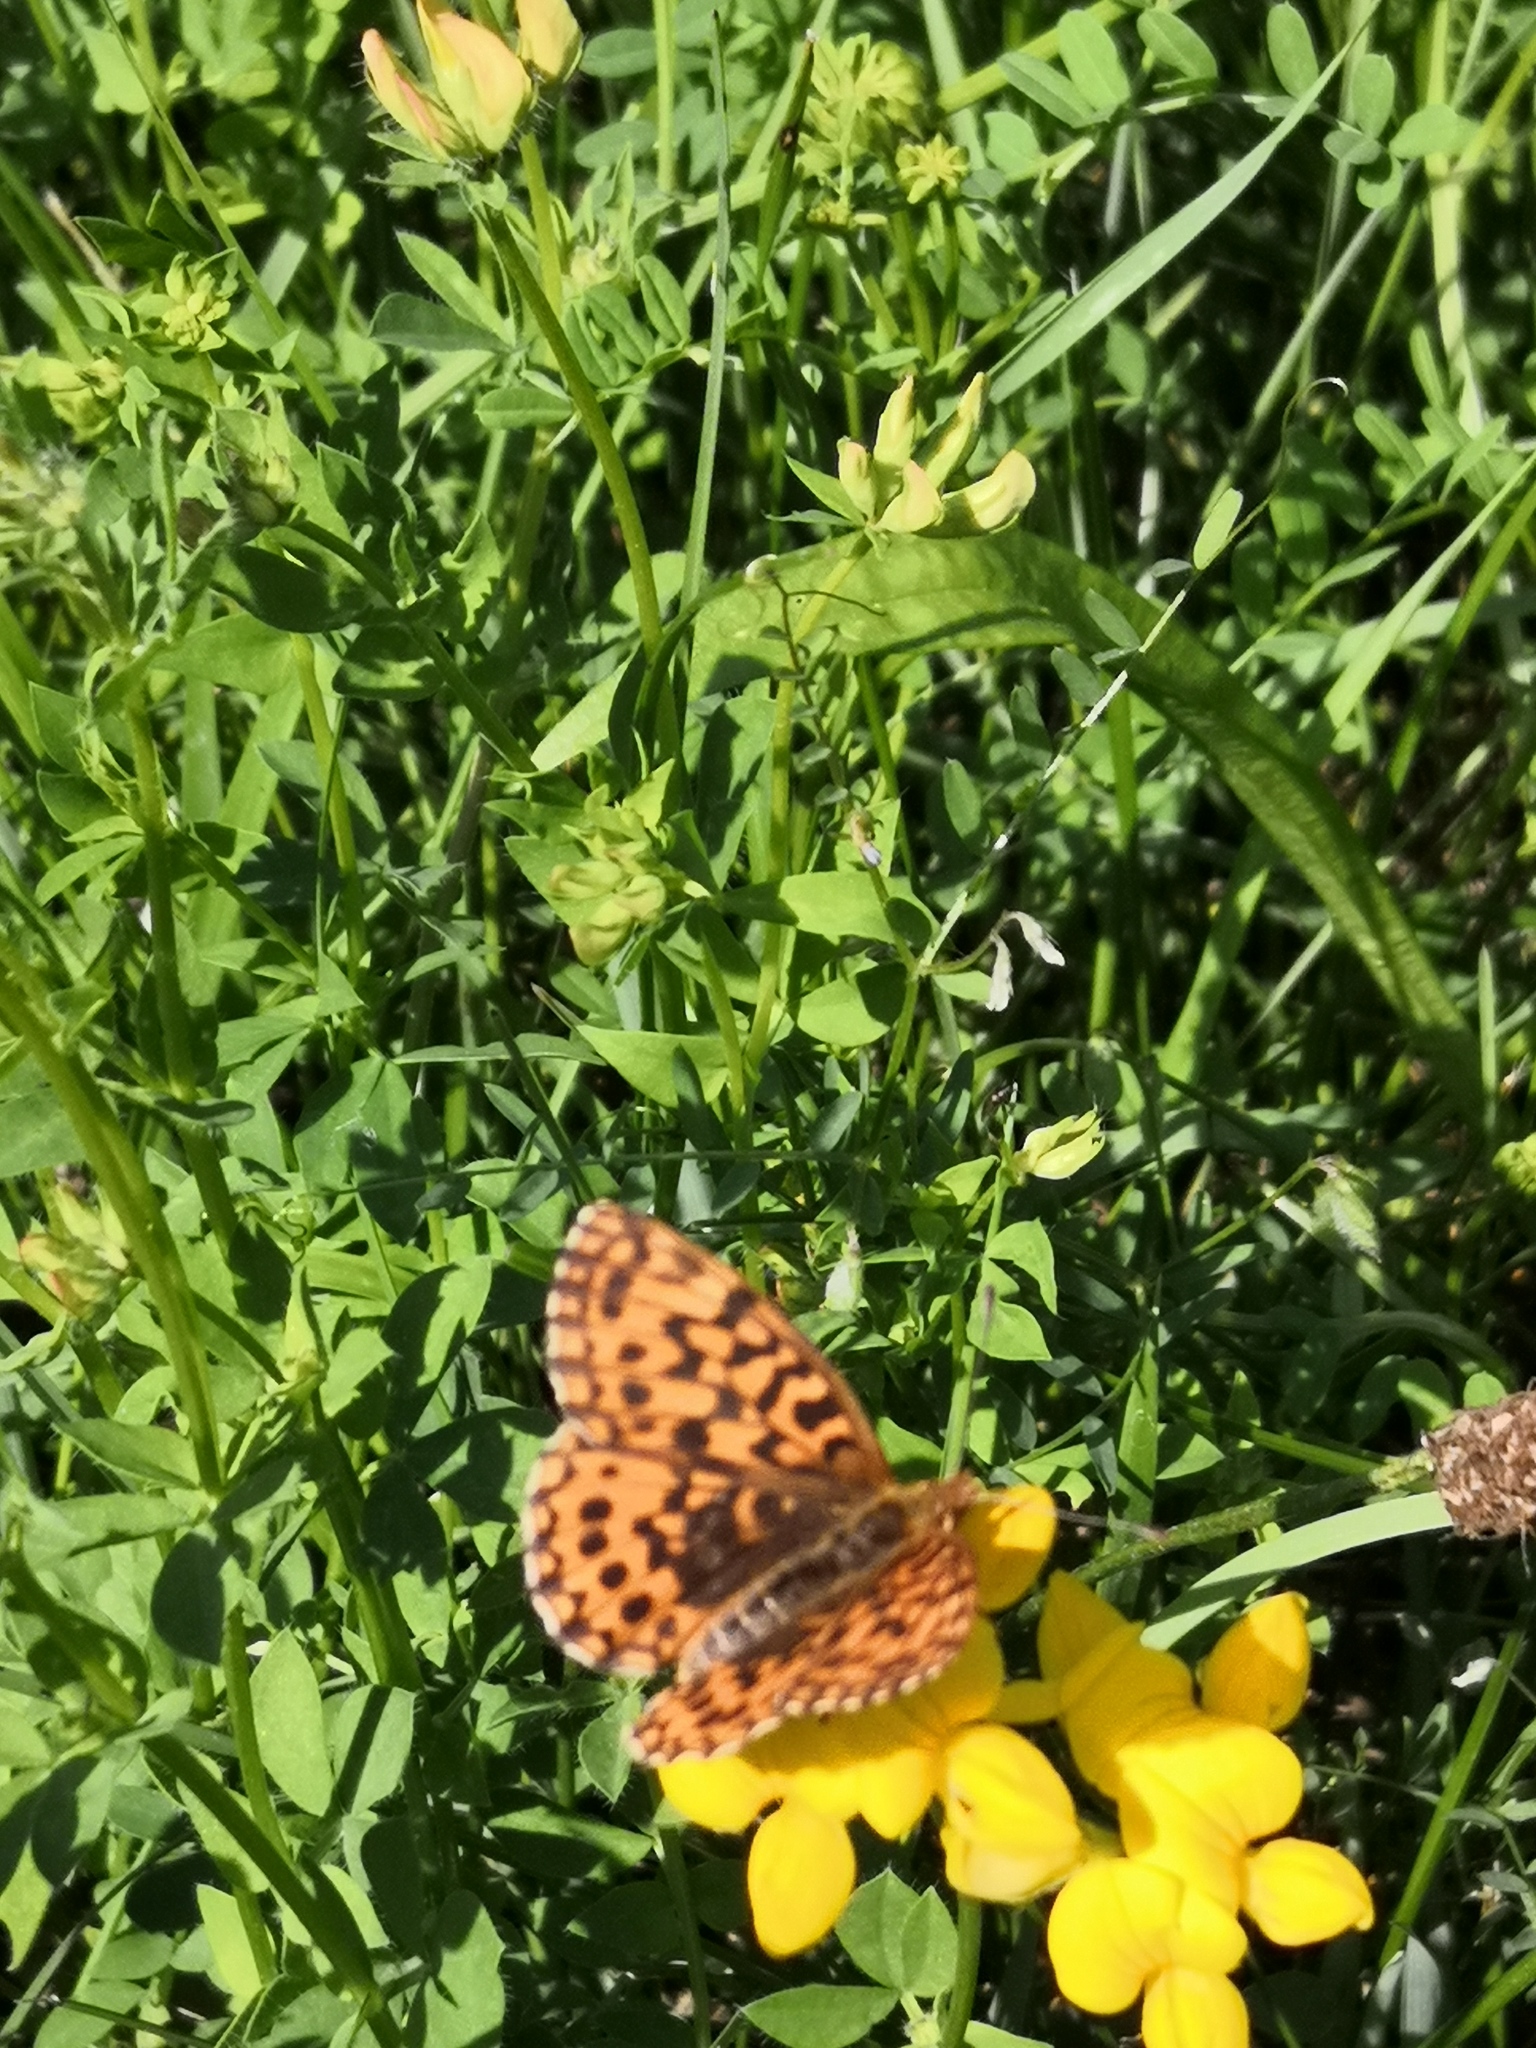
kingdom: Animalia
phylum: Arthropoda
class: Insecta
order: Lepidoptera
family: Nymphalidae
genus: Boloria
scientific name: Boloria dia
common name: Weaver's fritillary
